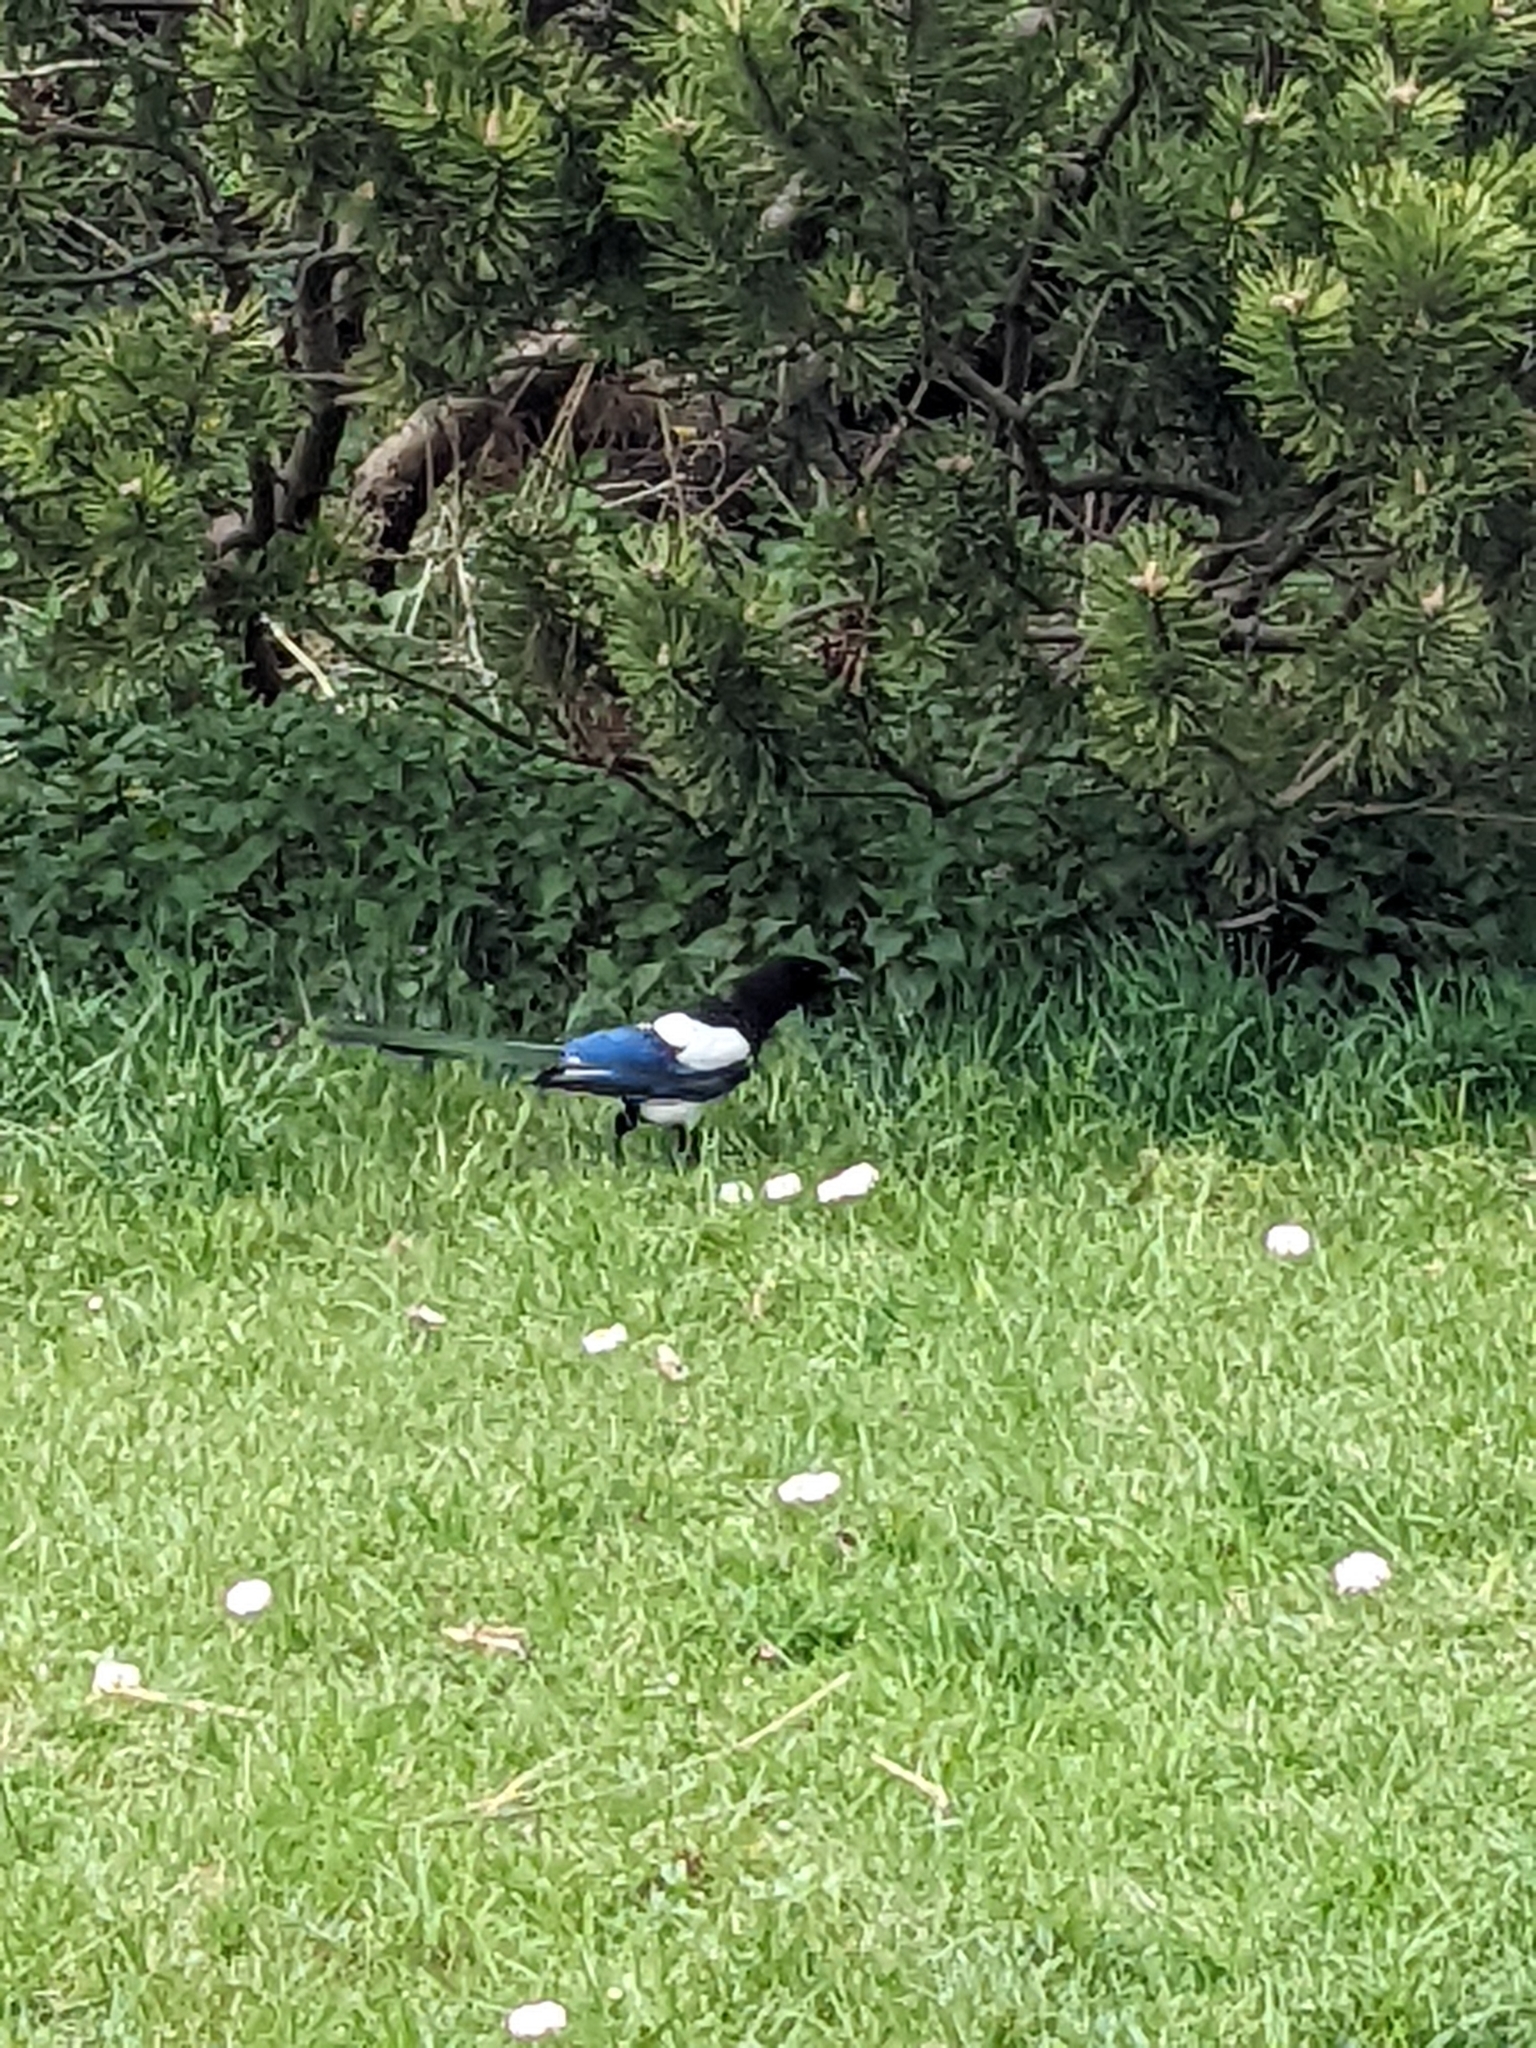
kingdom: Animalia
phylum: Chordata
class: Aves
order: Passeriformes
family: Corvidae
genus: Pica
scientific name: Pica pica
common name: Eurasian magpie
